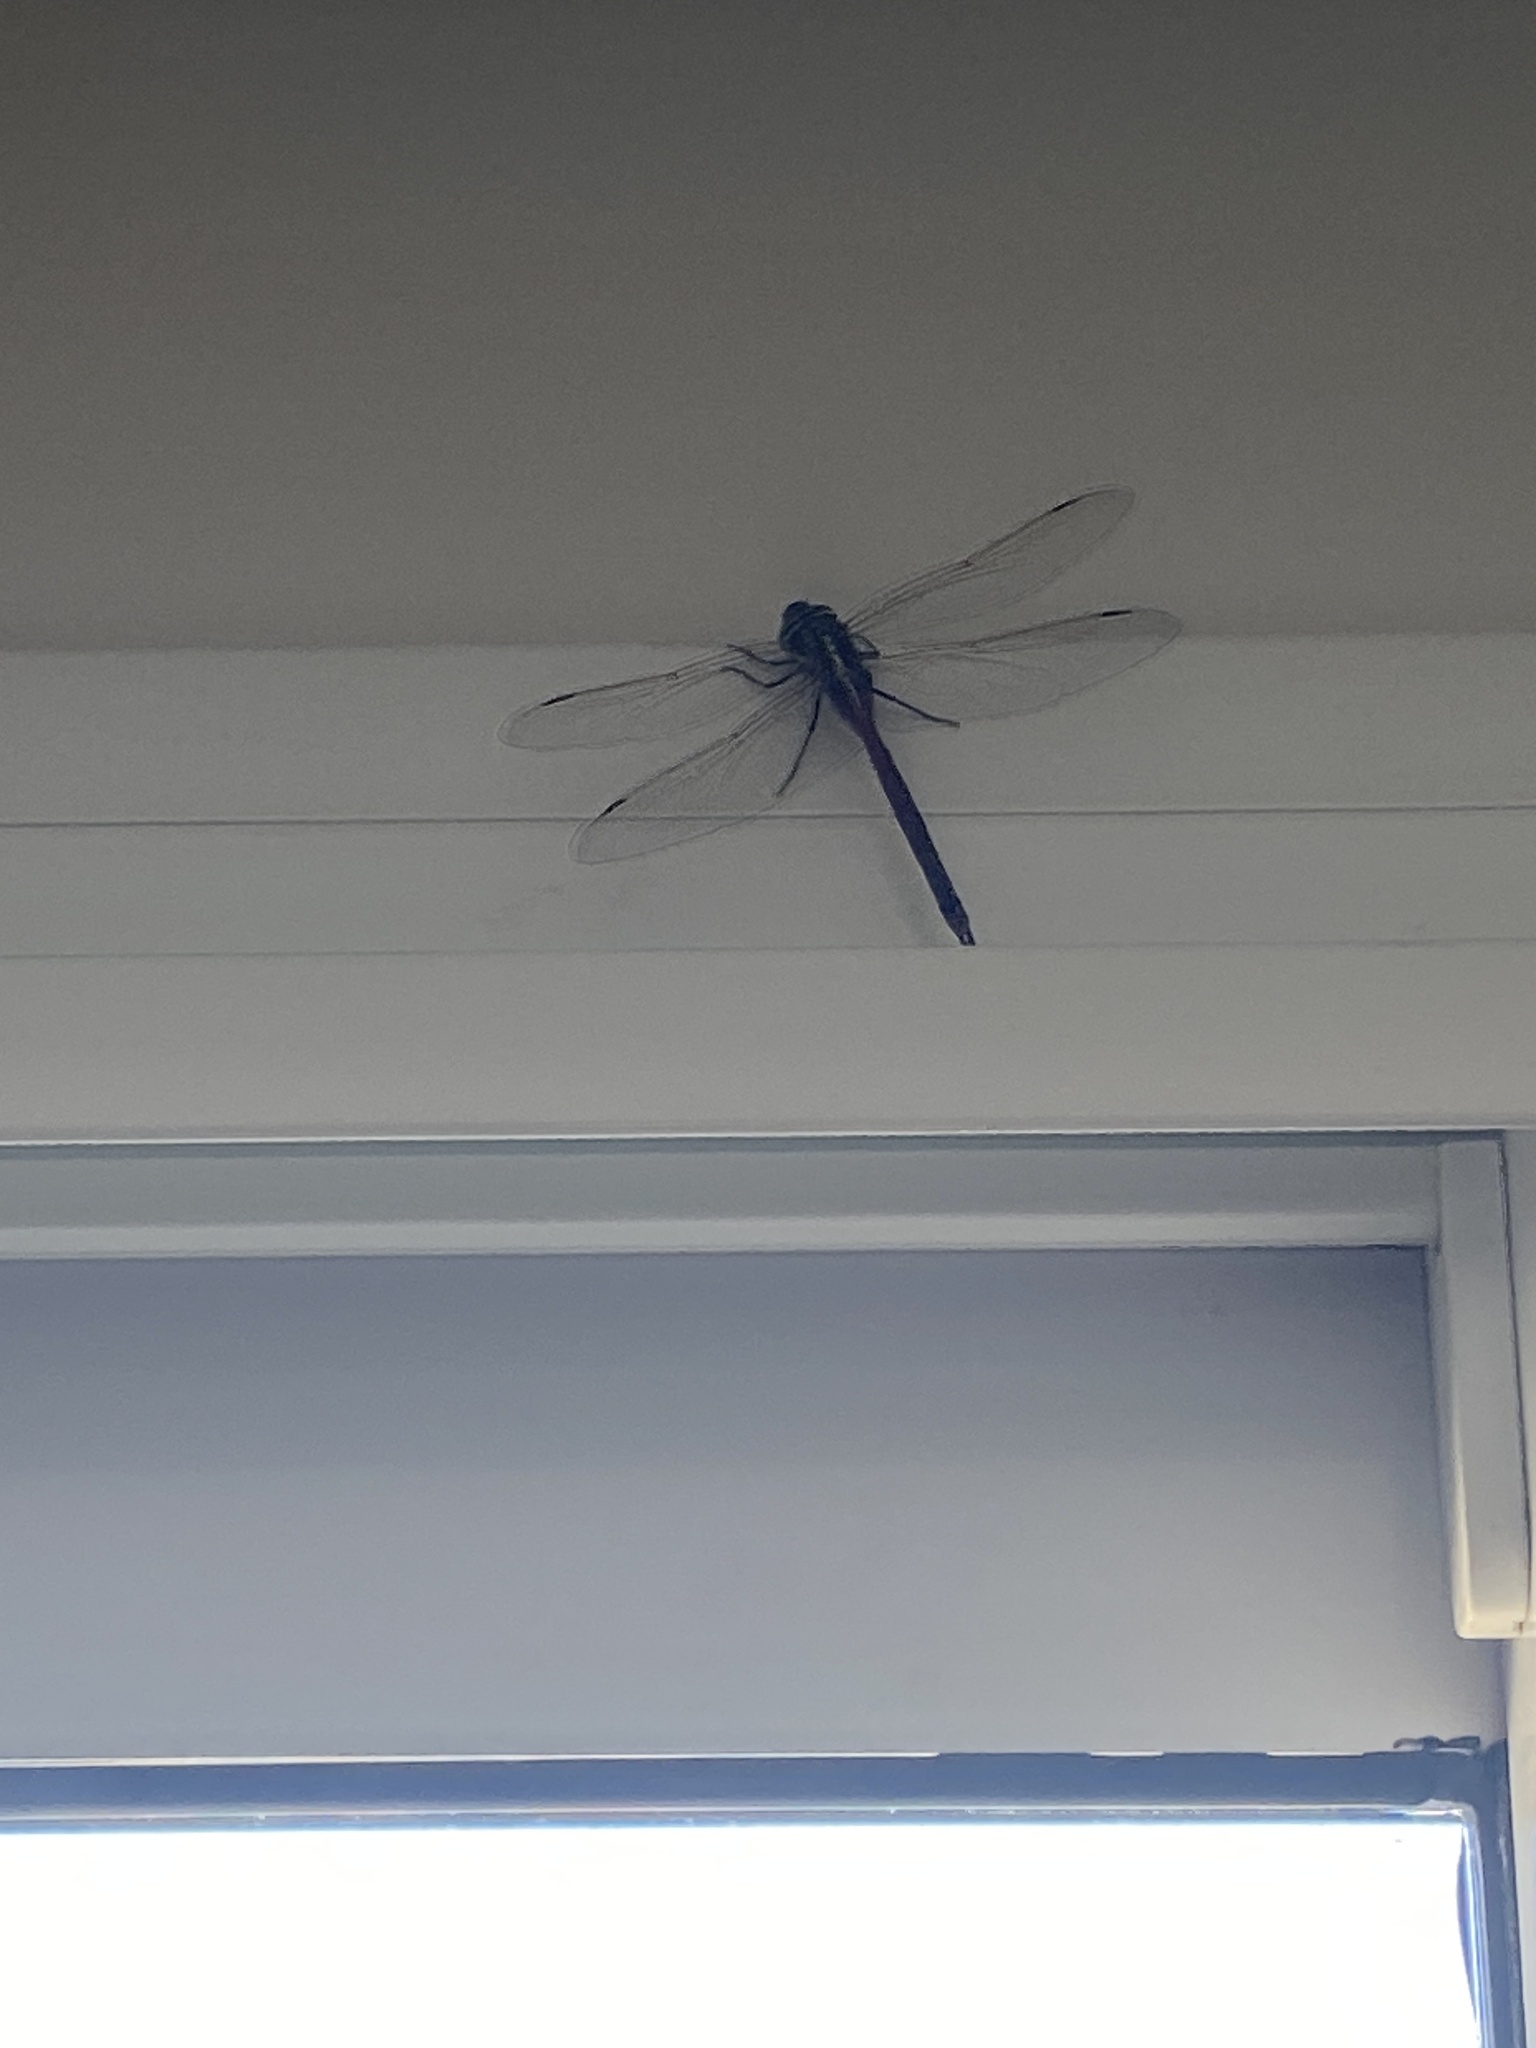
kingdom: Animalia
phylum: Arthropoda
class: Insecta
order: Odonata
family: Aeshnidae
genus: Rhionaeschna
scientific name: Rhionaeschna confusa
